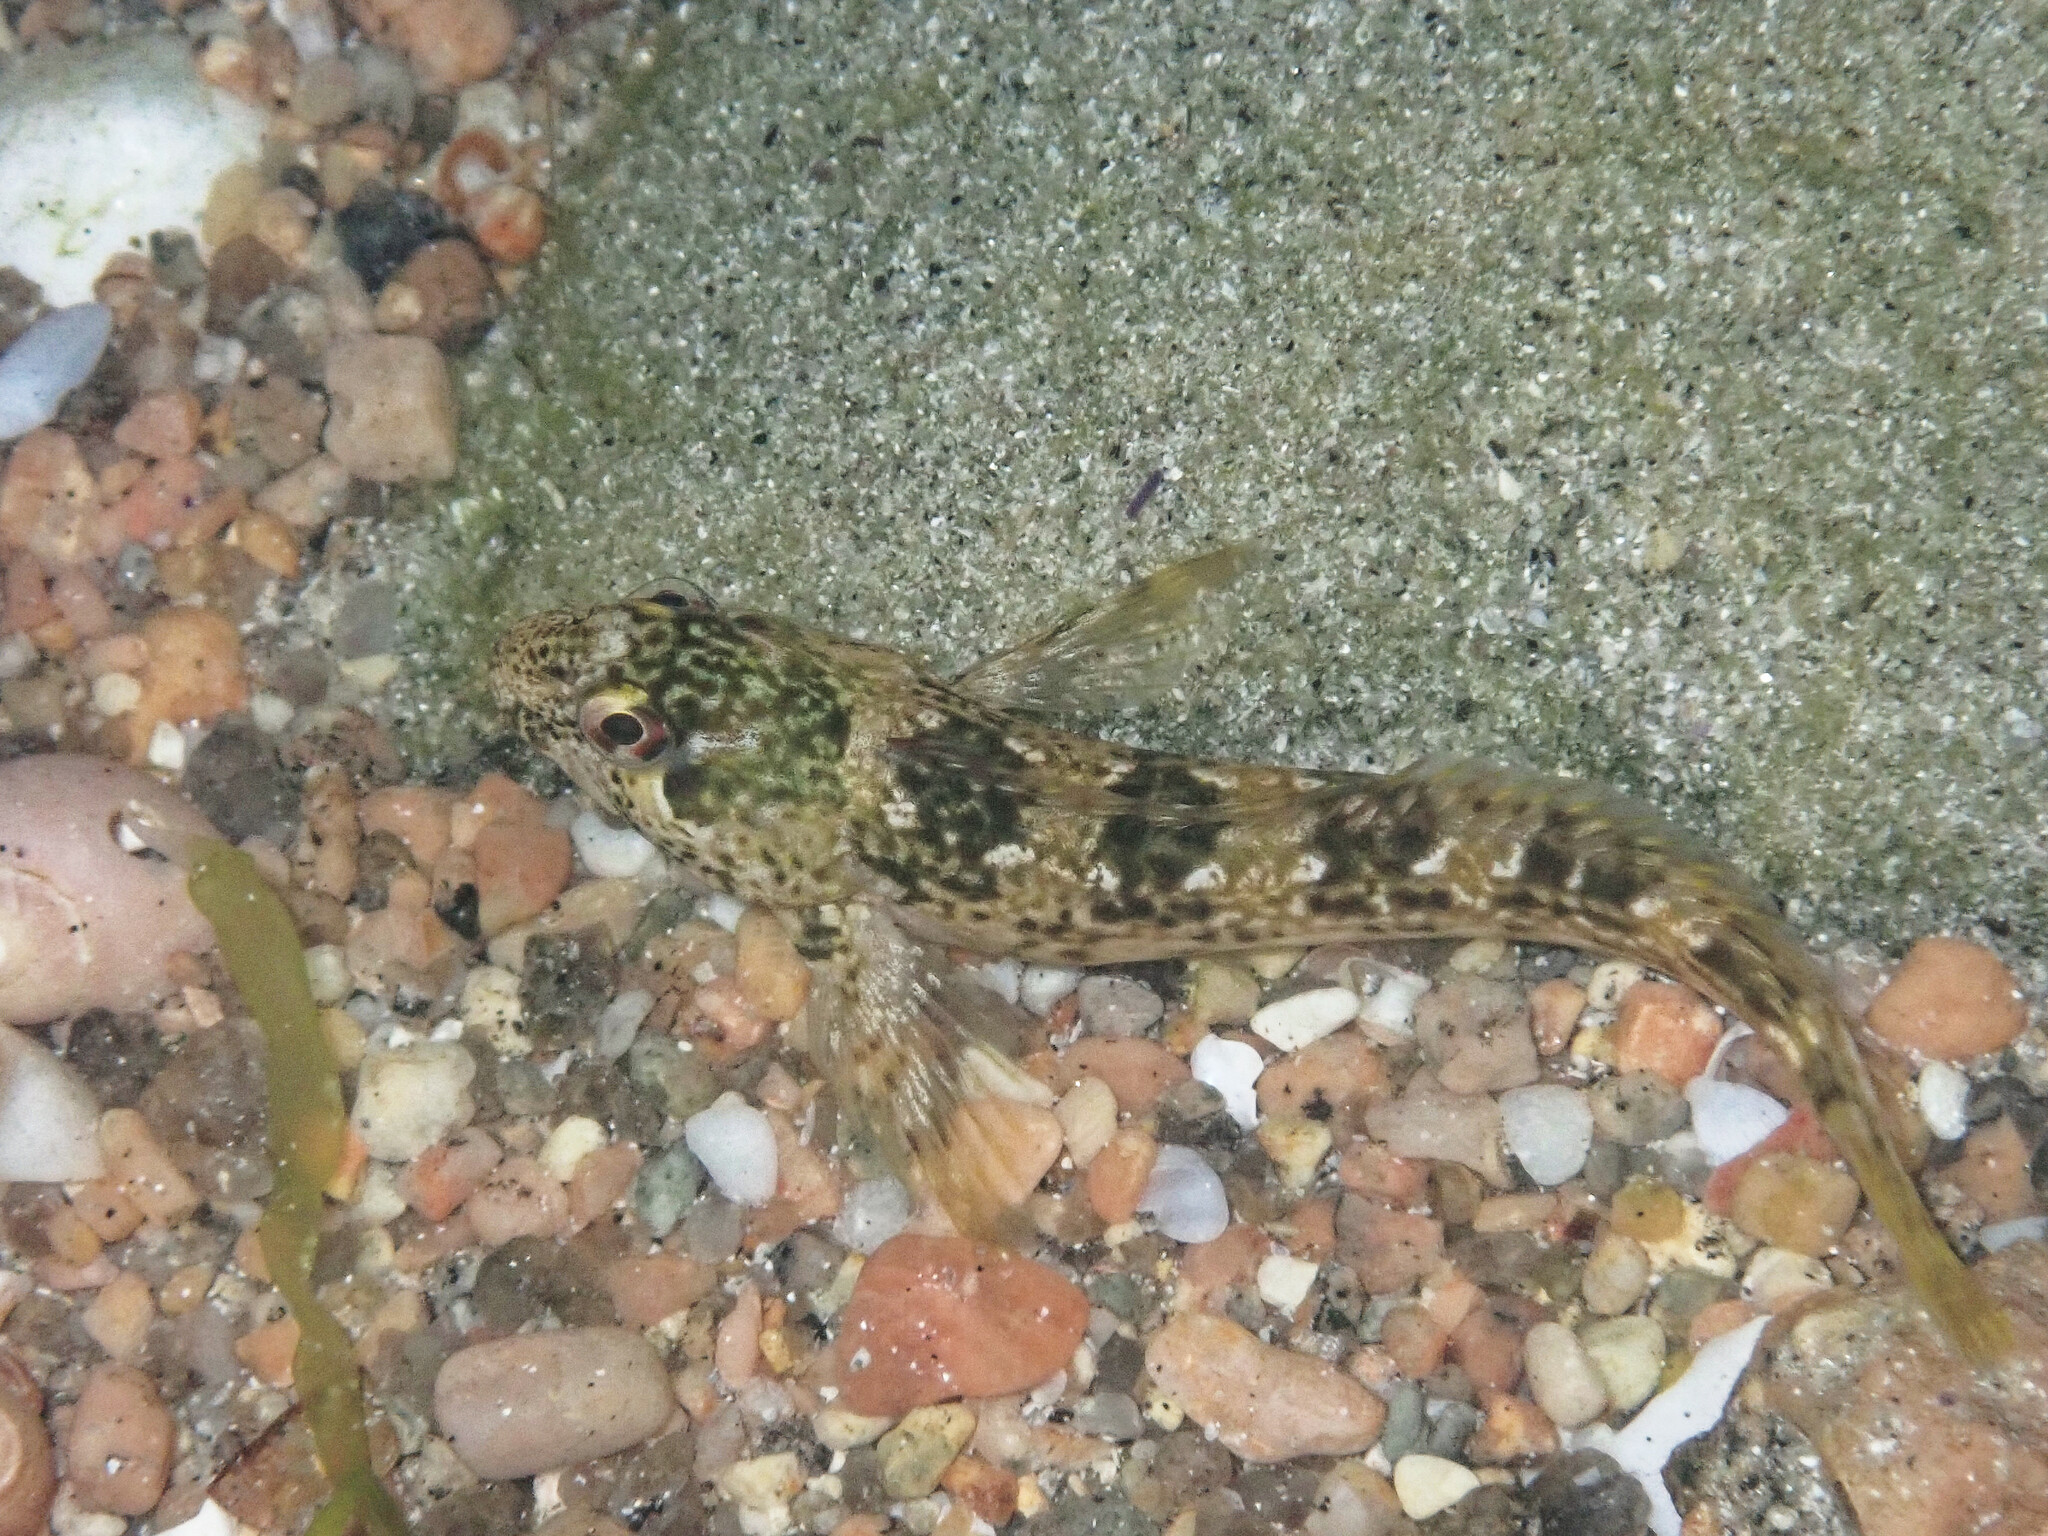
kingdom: Animalia
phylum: Chordata
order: Perciformes
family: Blenniidae
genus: Lipophrys
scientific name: Lipophrys pholis
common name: Shanny
